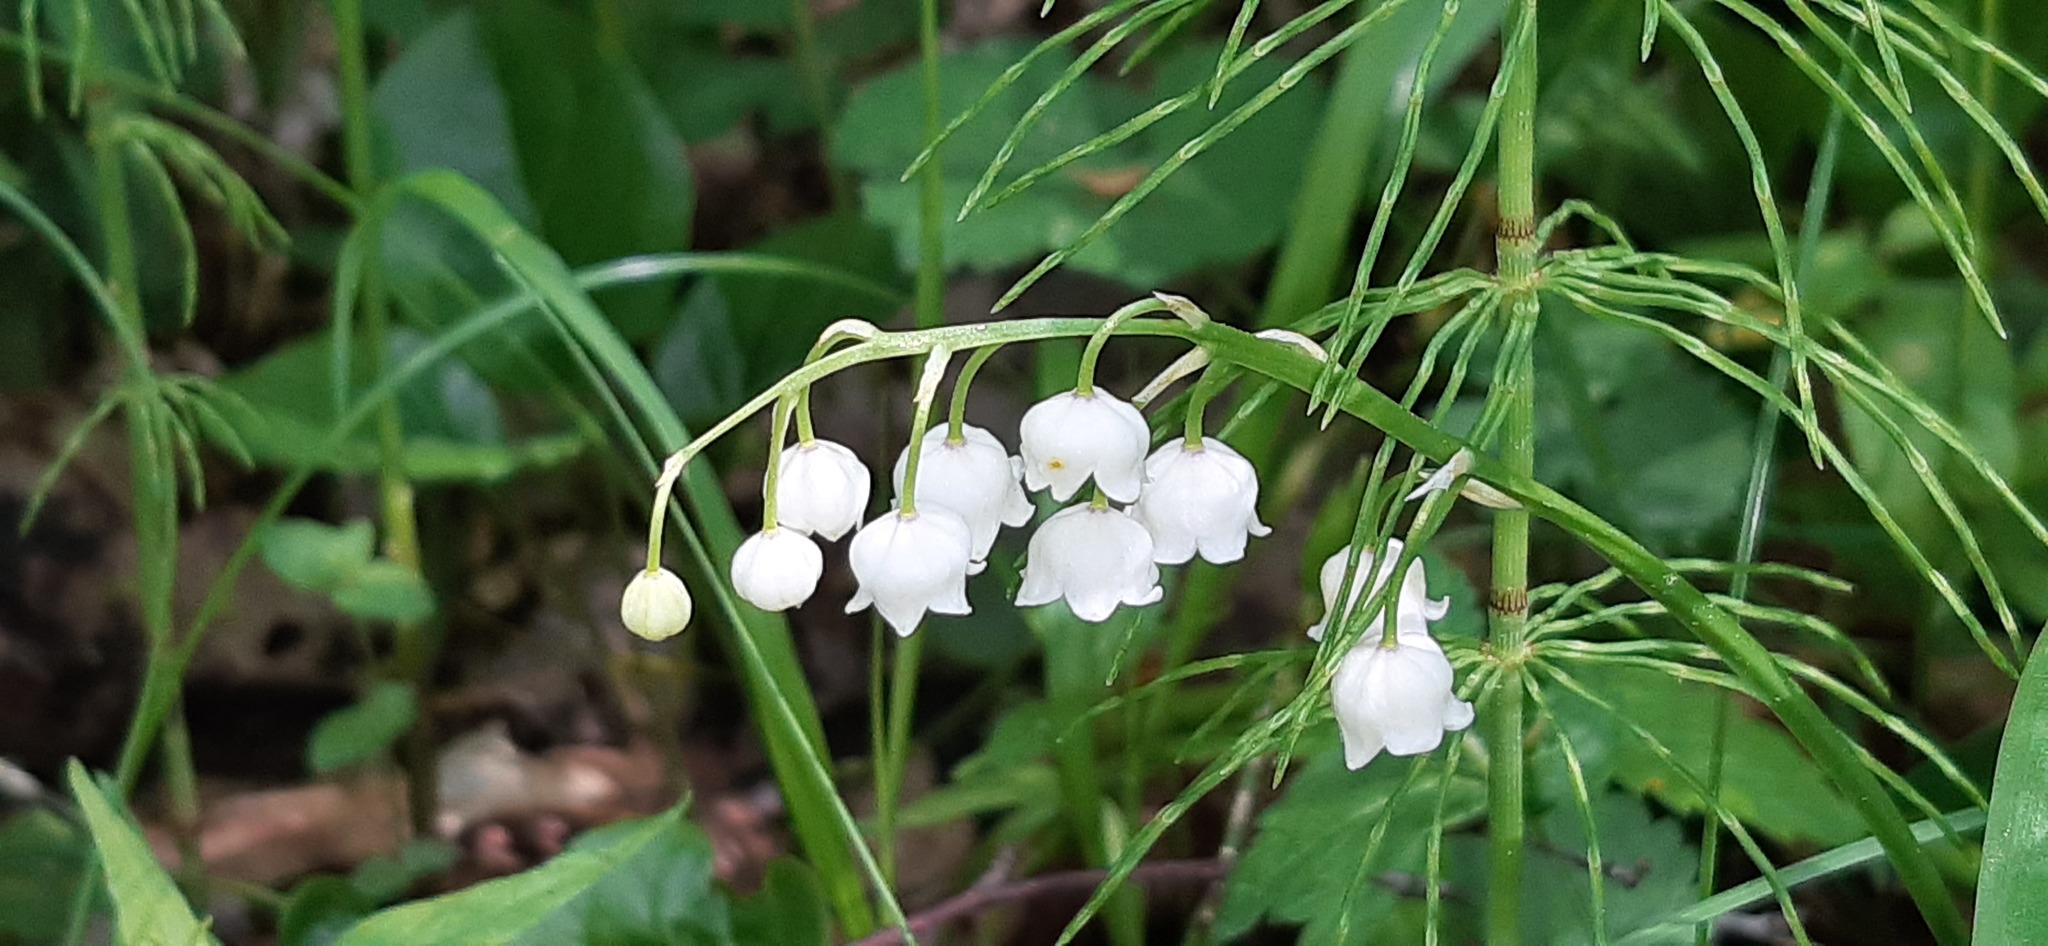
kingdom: Plantae
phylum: Tracheophyta
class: Liliopsida
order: Asparagales
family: Asparagaceae
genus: Convallaria
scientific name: Convallaria majalis
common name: Lily-of-the-valley
